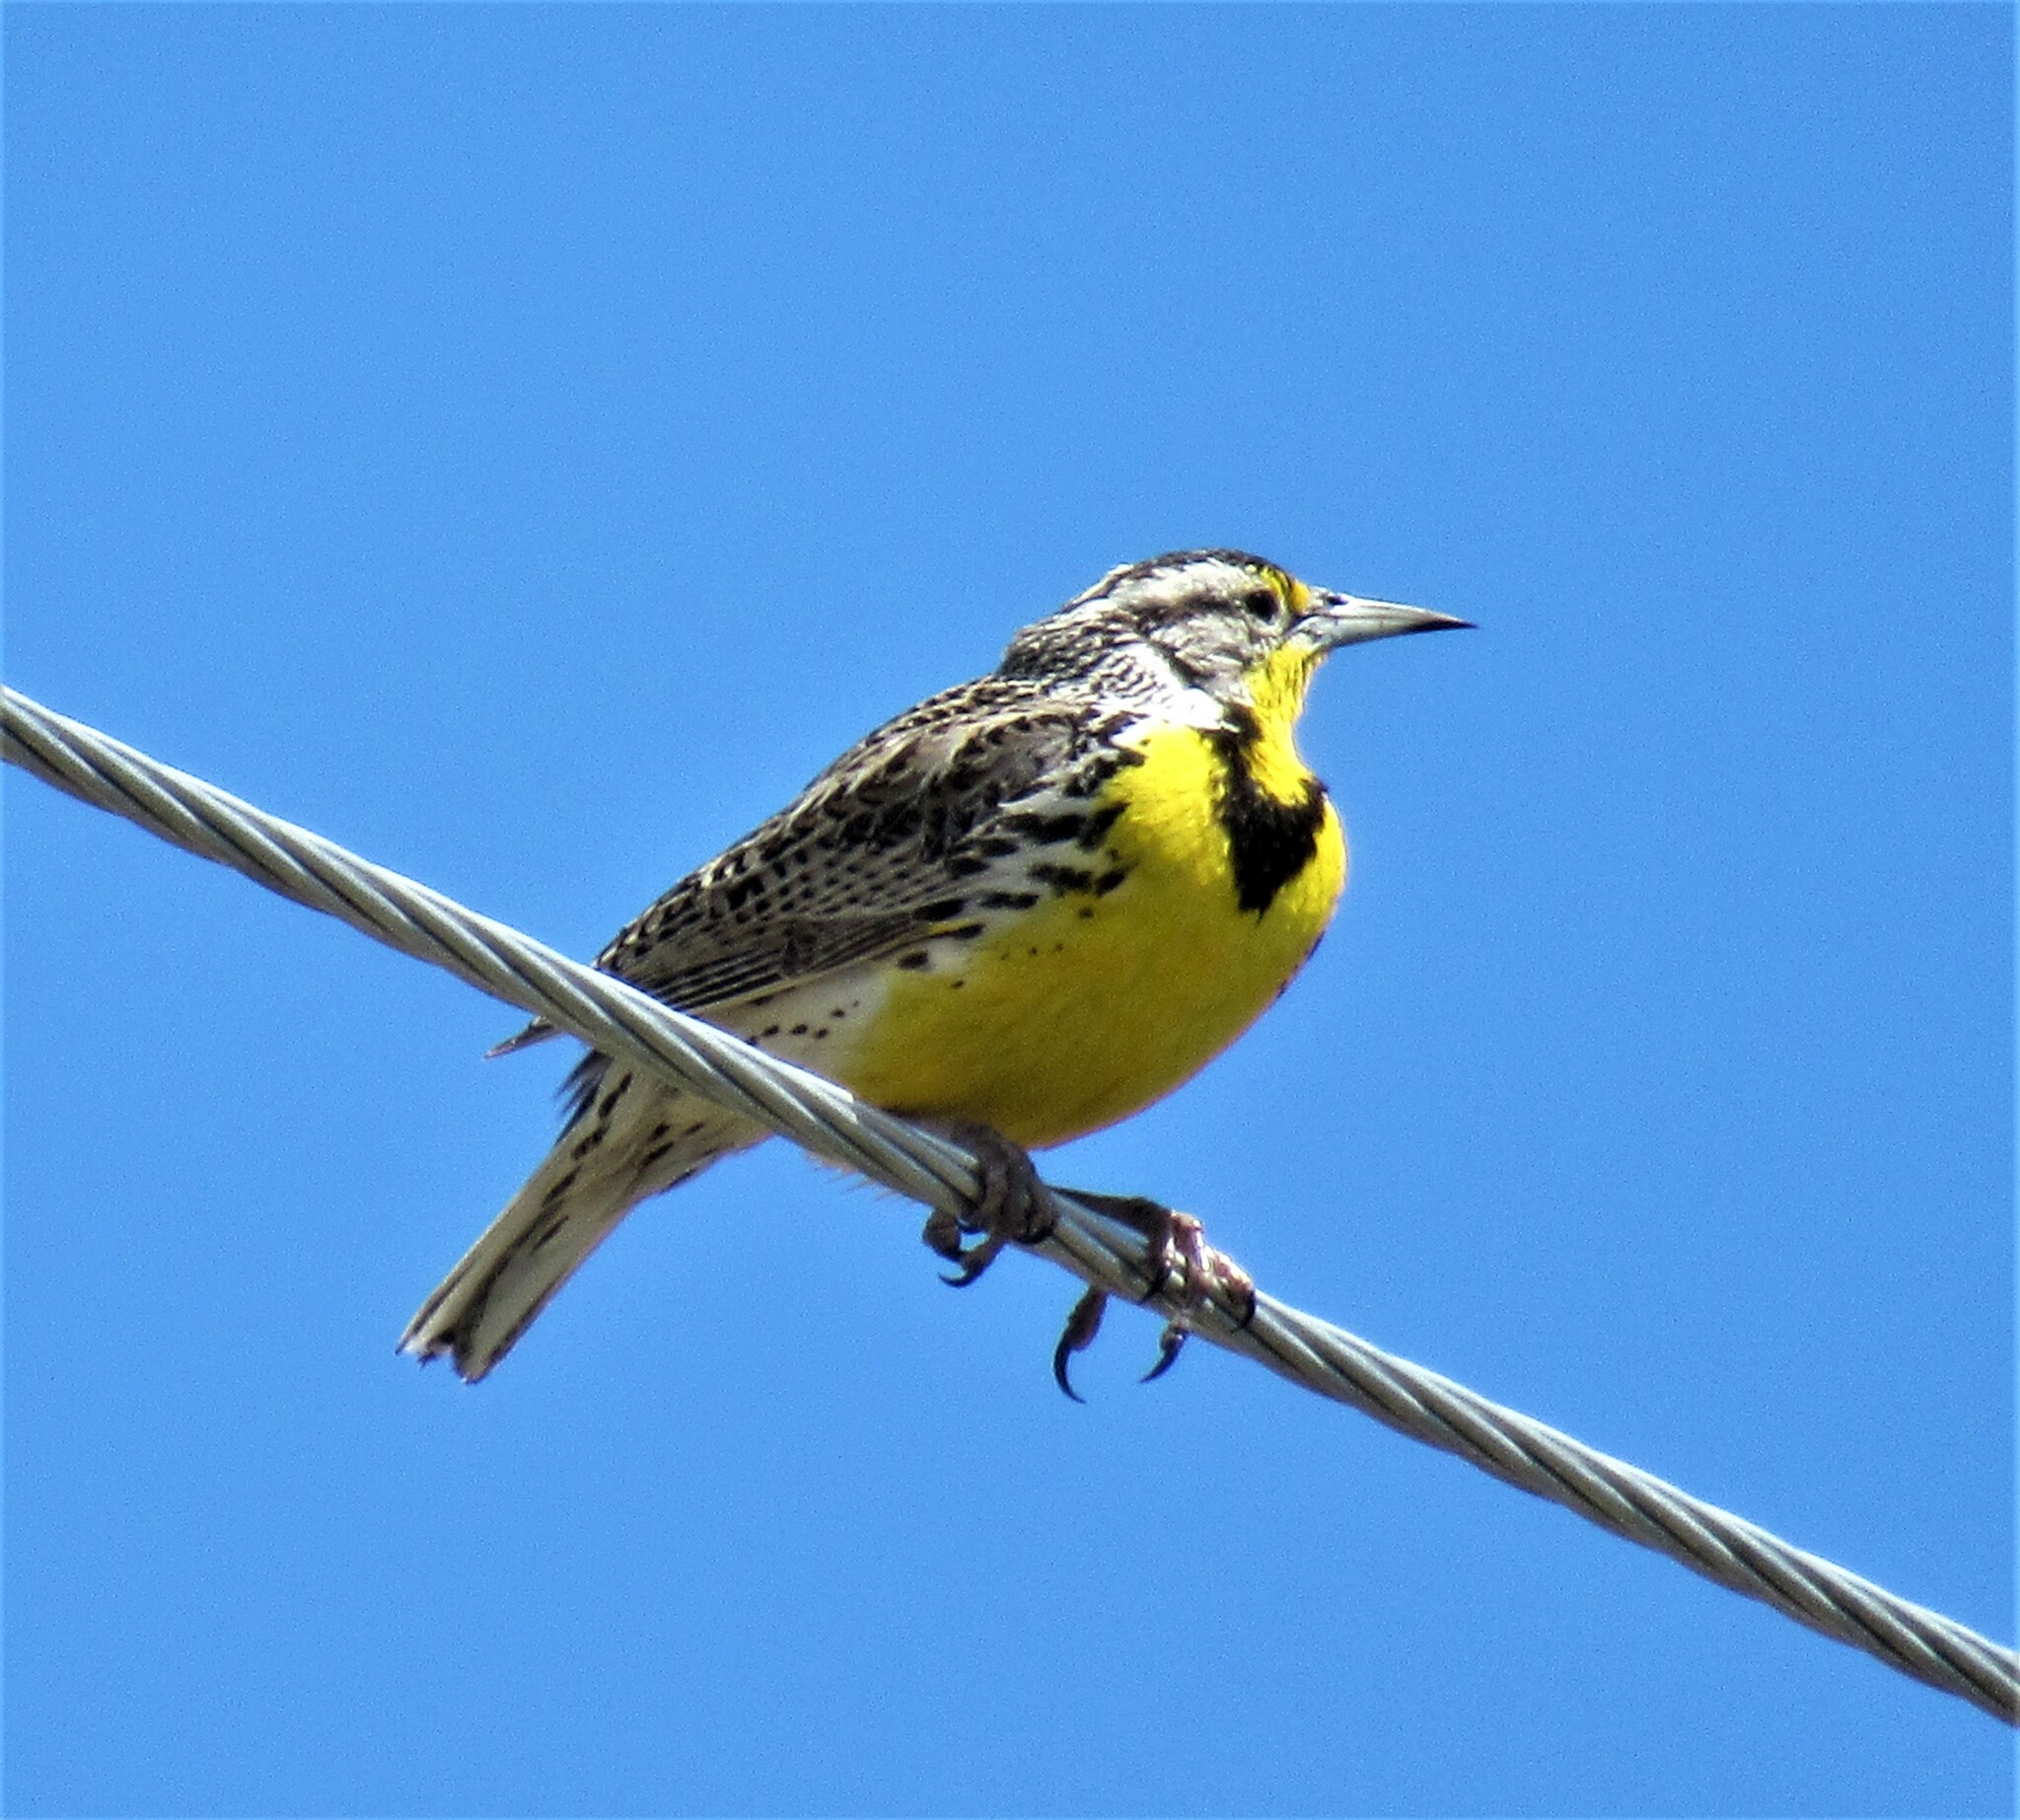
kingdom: Animalia
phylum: Chordata
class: Aves
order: Passeriformes
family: Icteridae
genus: Sturnella
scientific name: Sturnella neglecta
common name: Western meadowlark
